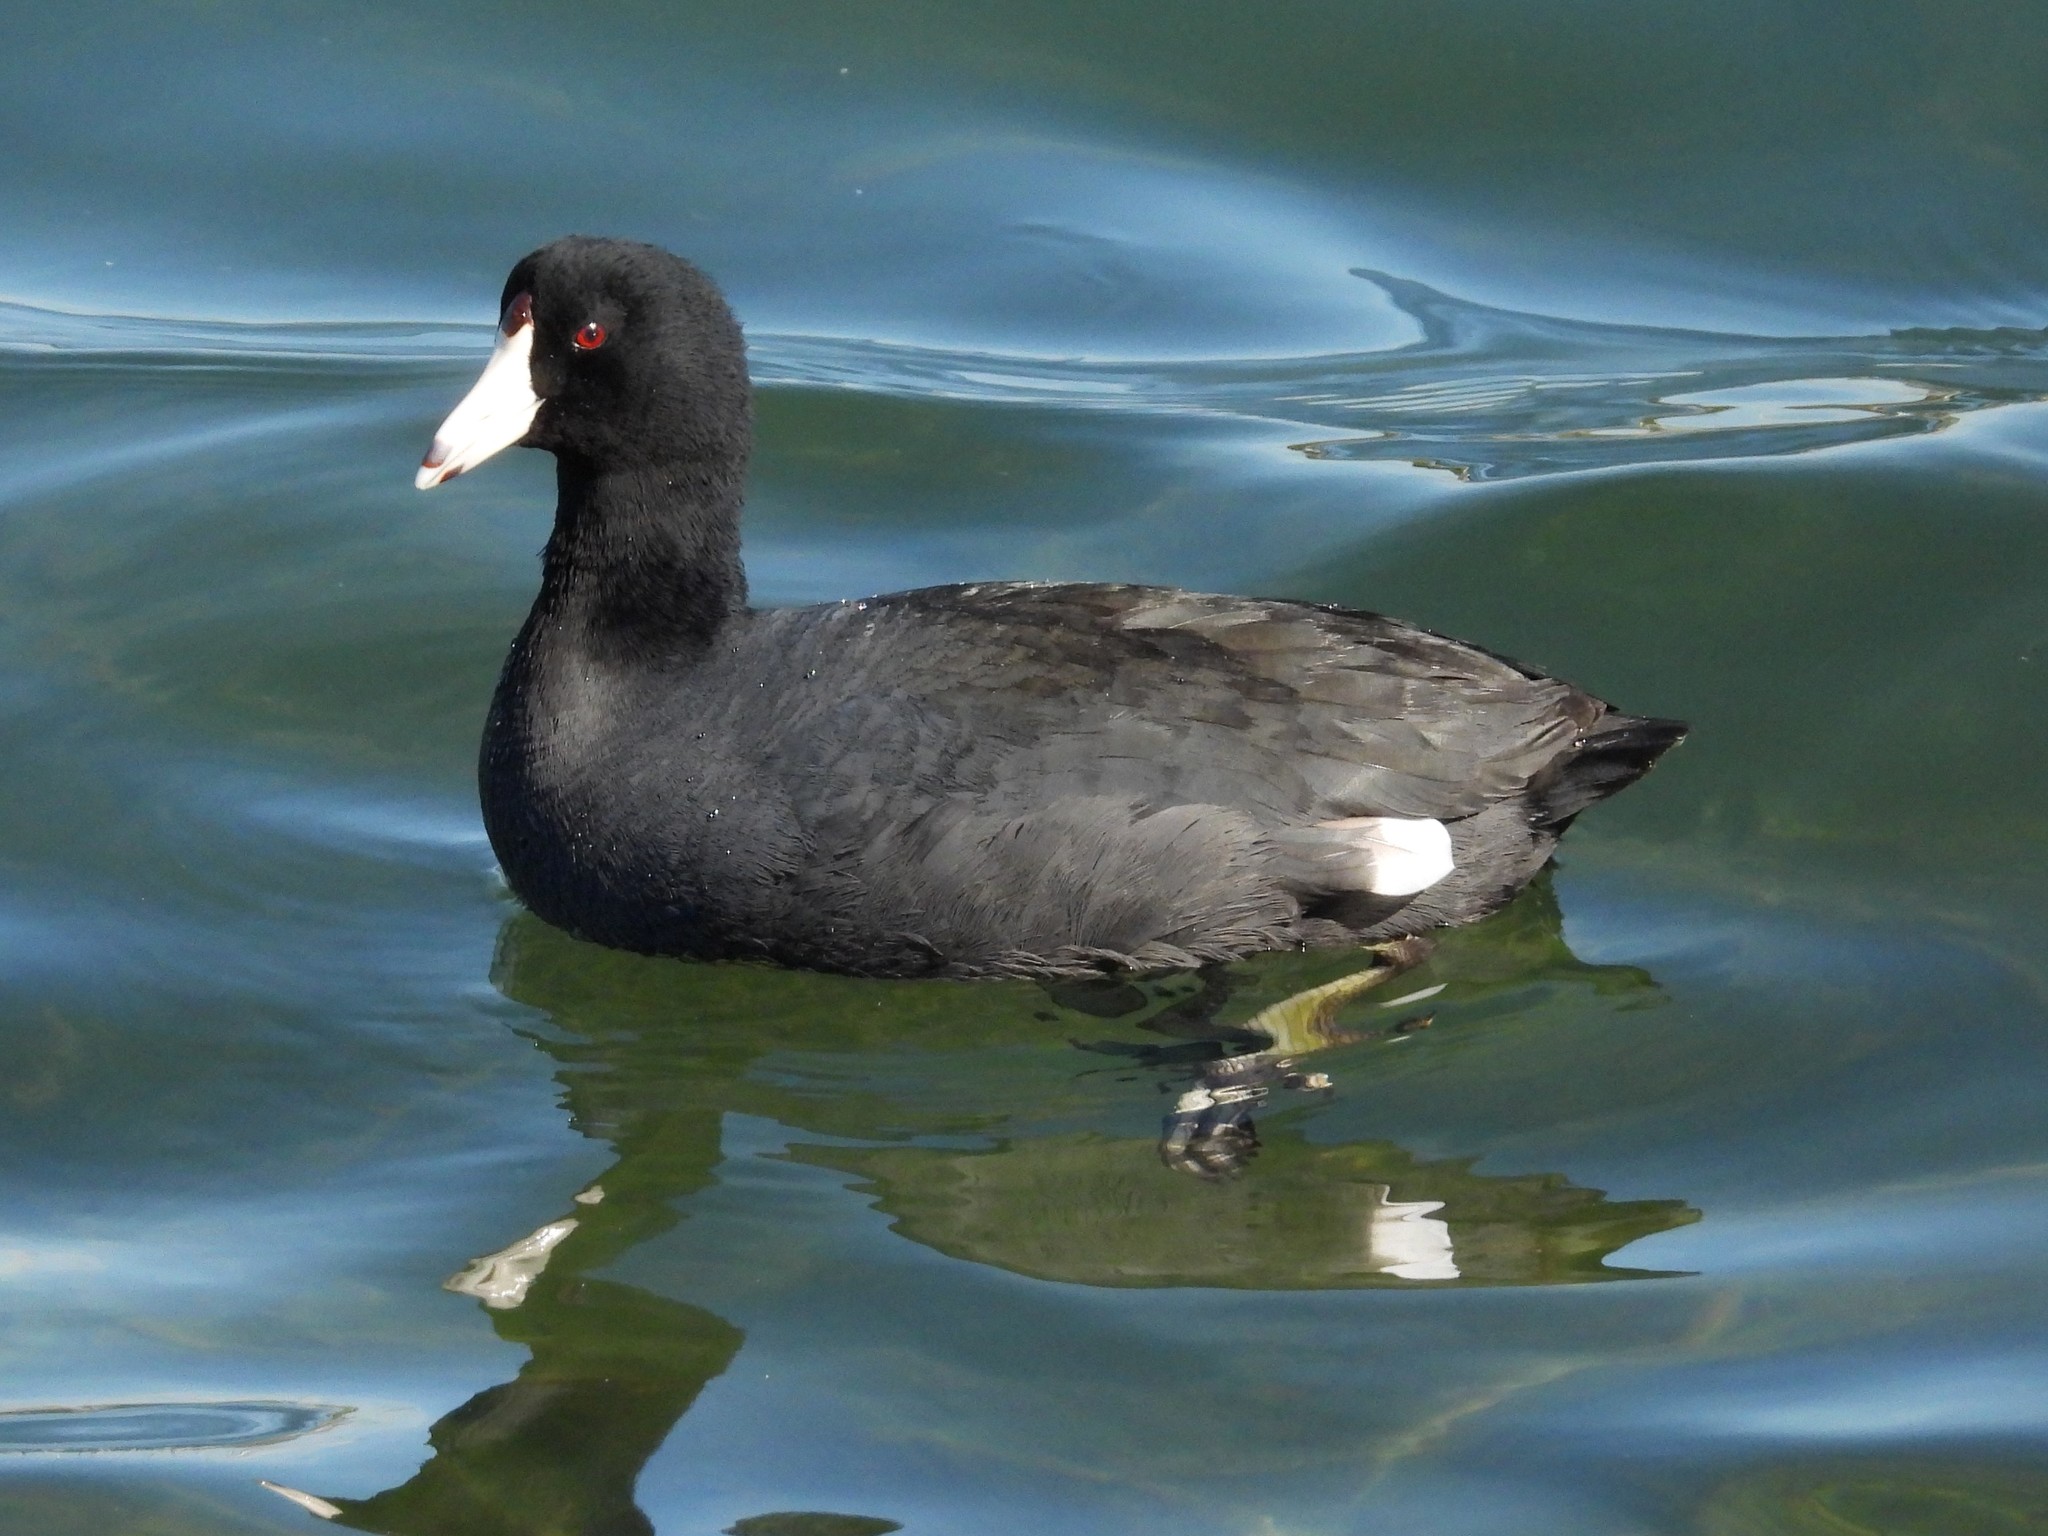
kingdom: Animalia
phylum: Chordata
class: Aves
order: Gruiformes
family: Rallidae
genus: Fulica
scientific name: Fulica americana
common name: American coot
